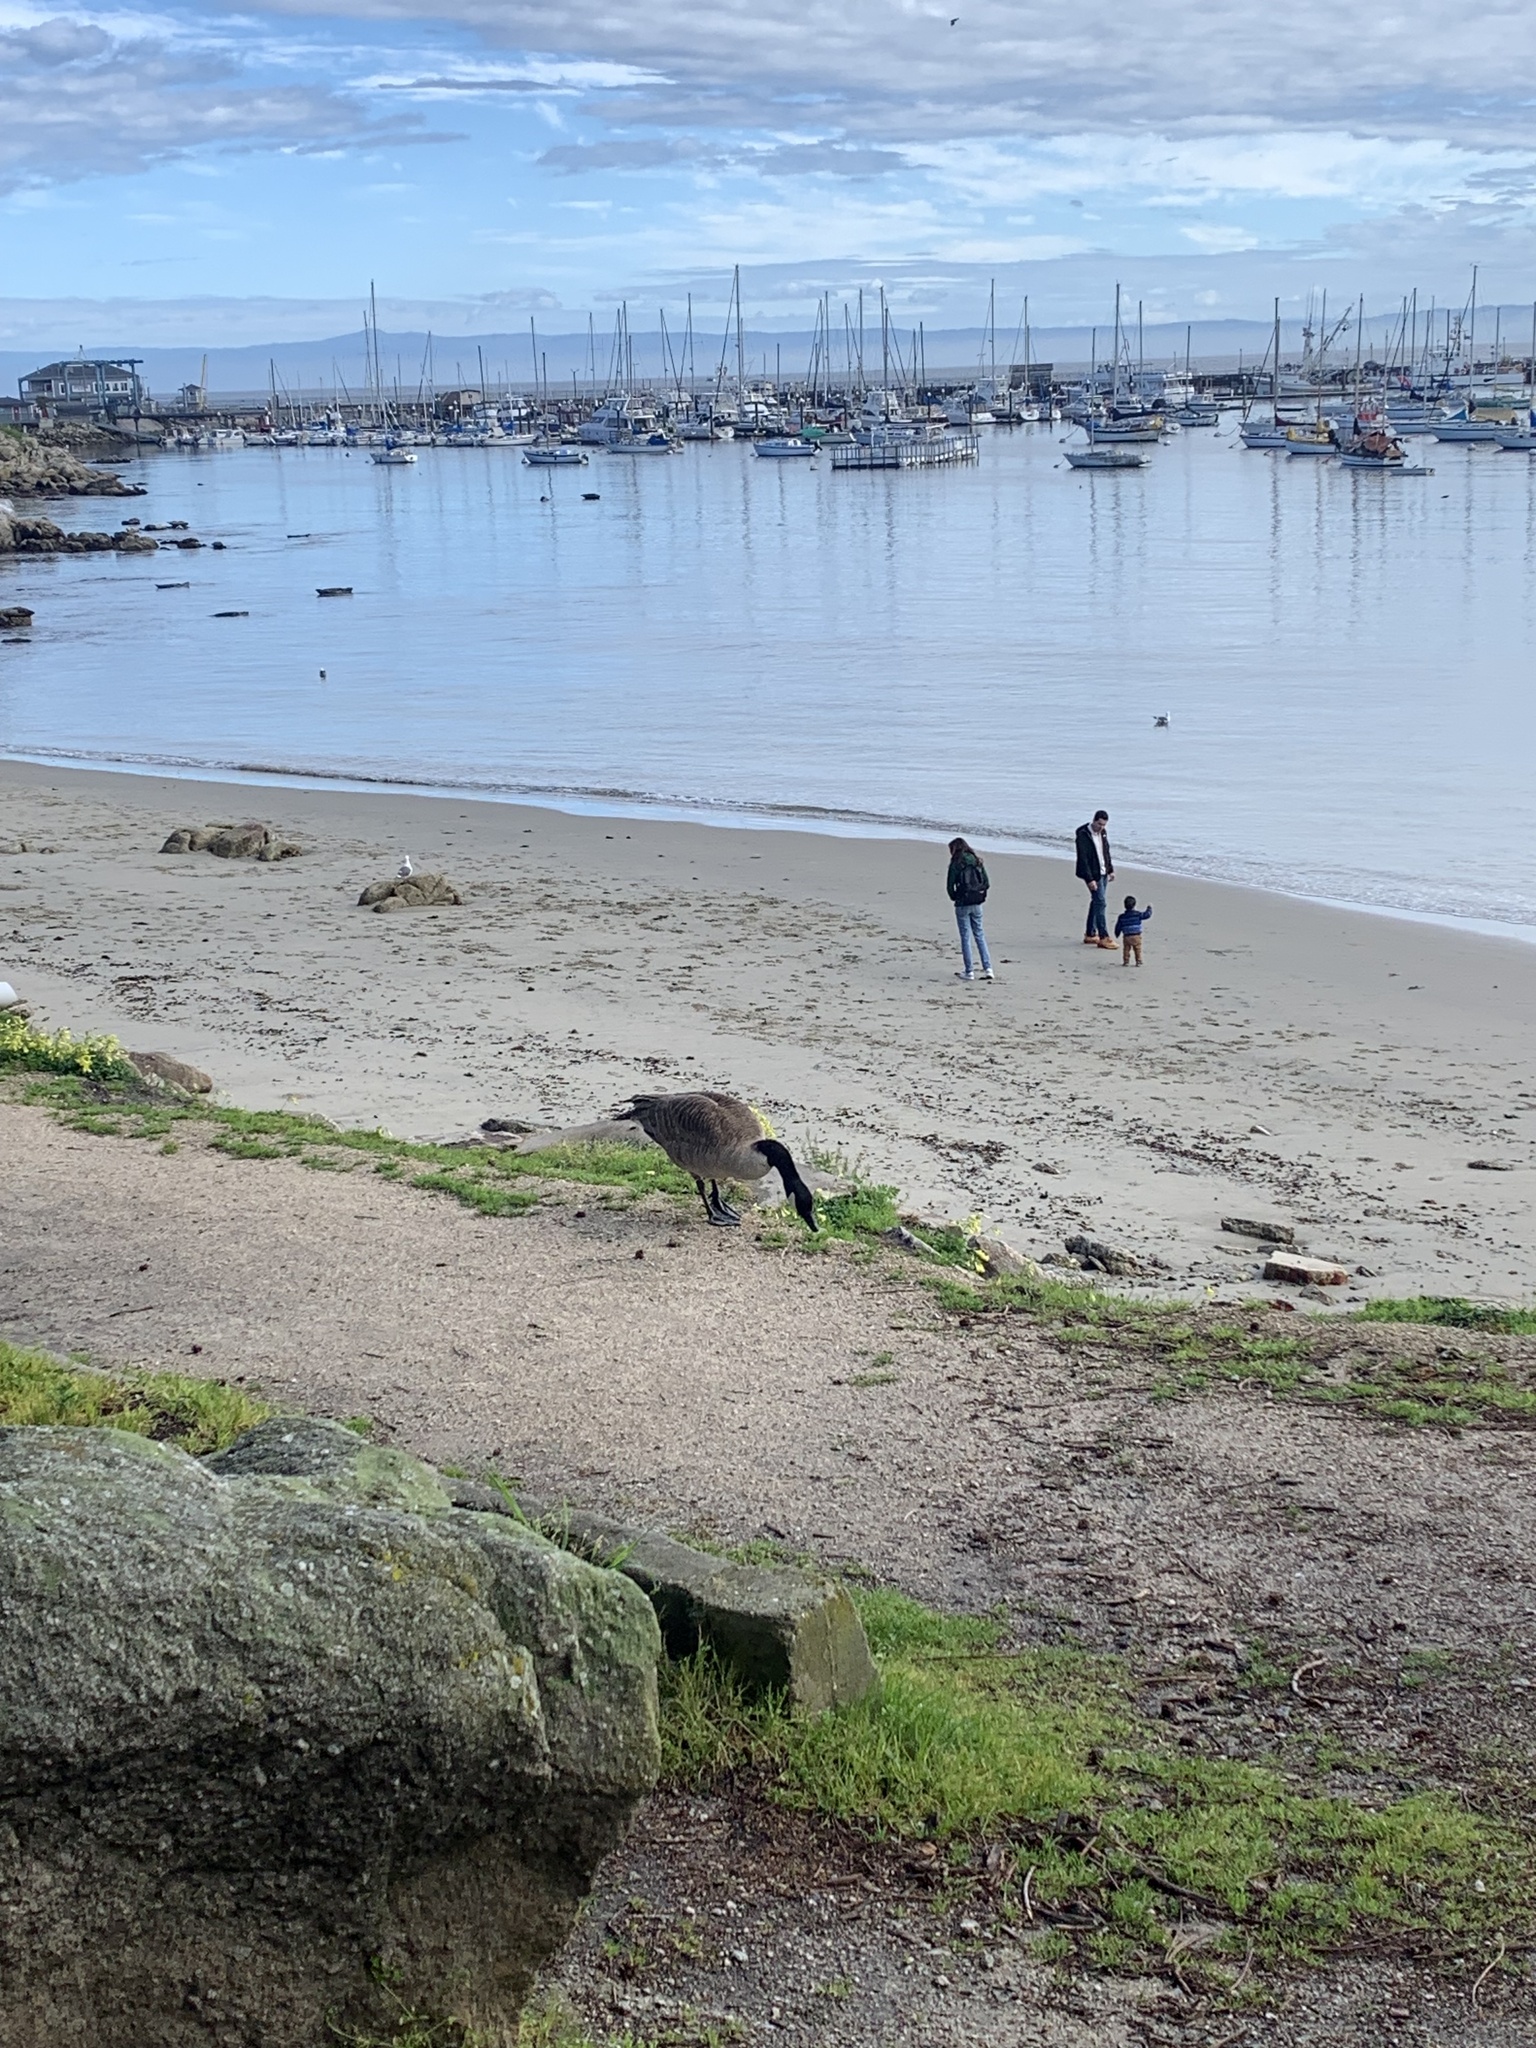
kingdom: Animalia
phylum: Chordata
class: Aves
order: Anseriformes
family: Anatidae
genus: Branta
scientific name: Branta canadensis
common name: Canada goose
